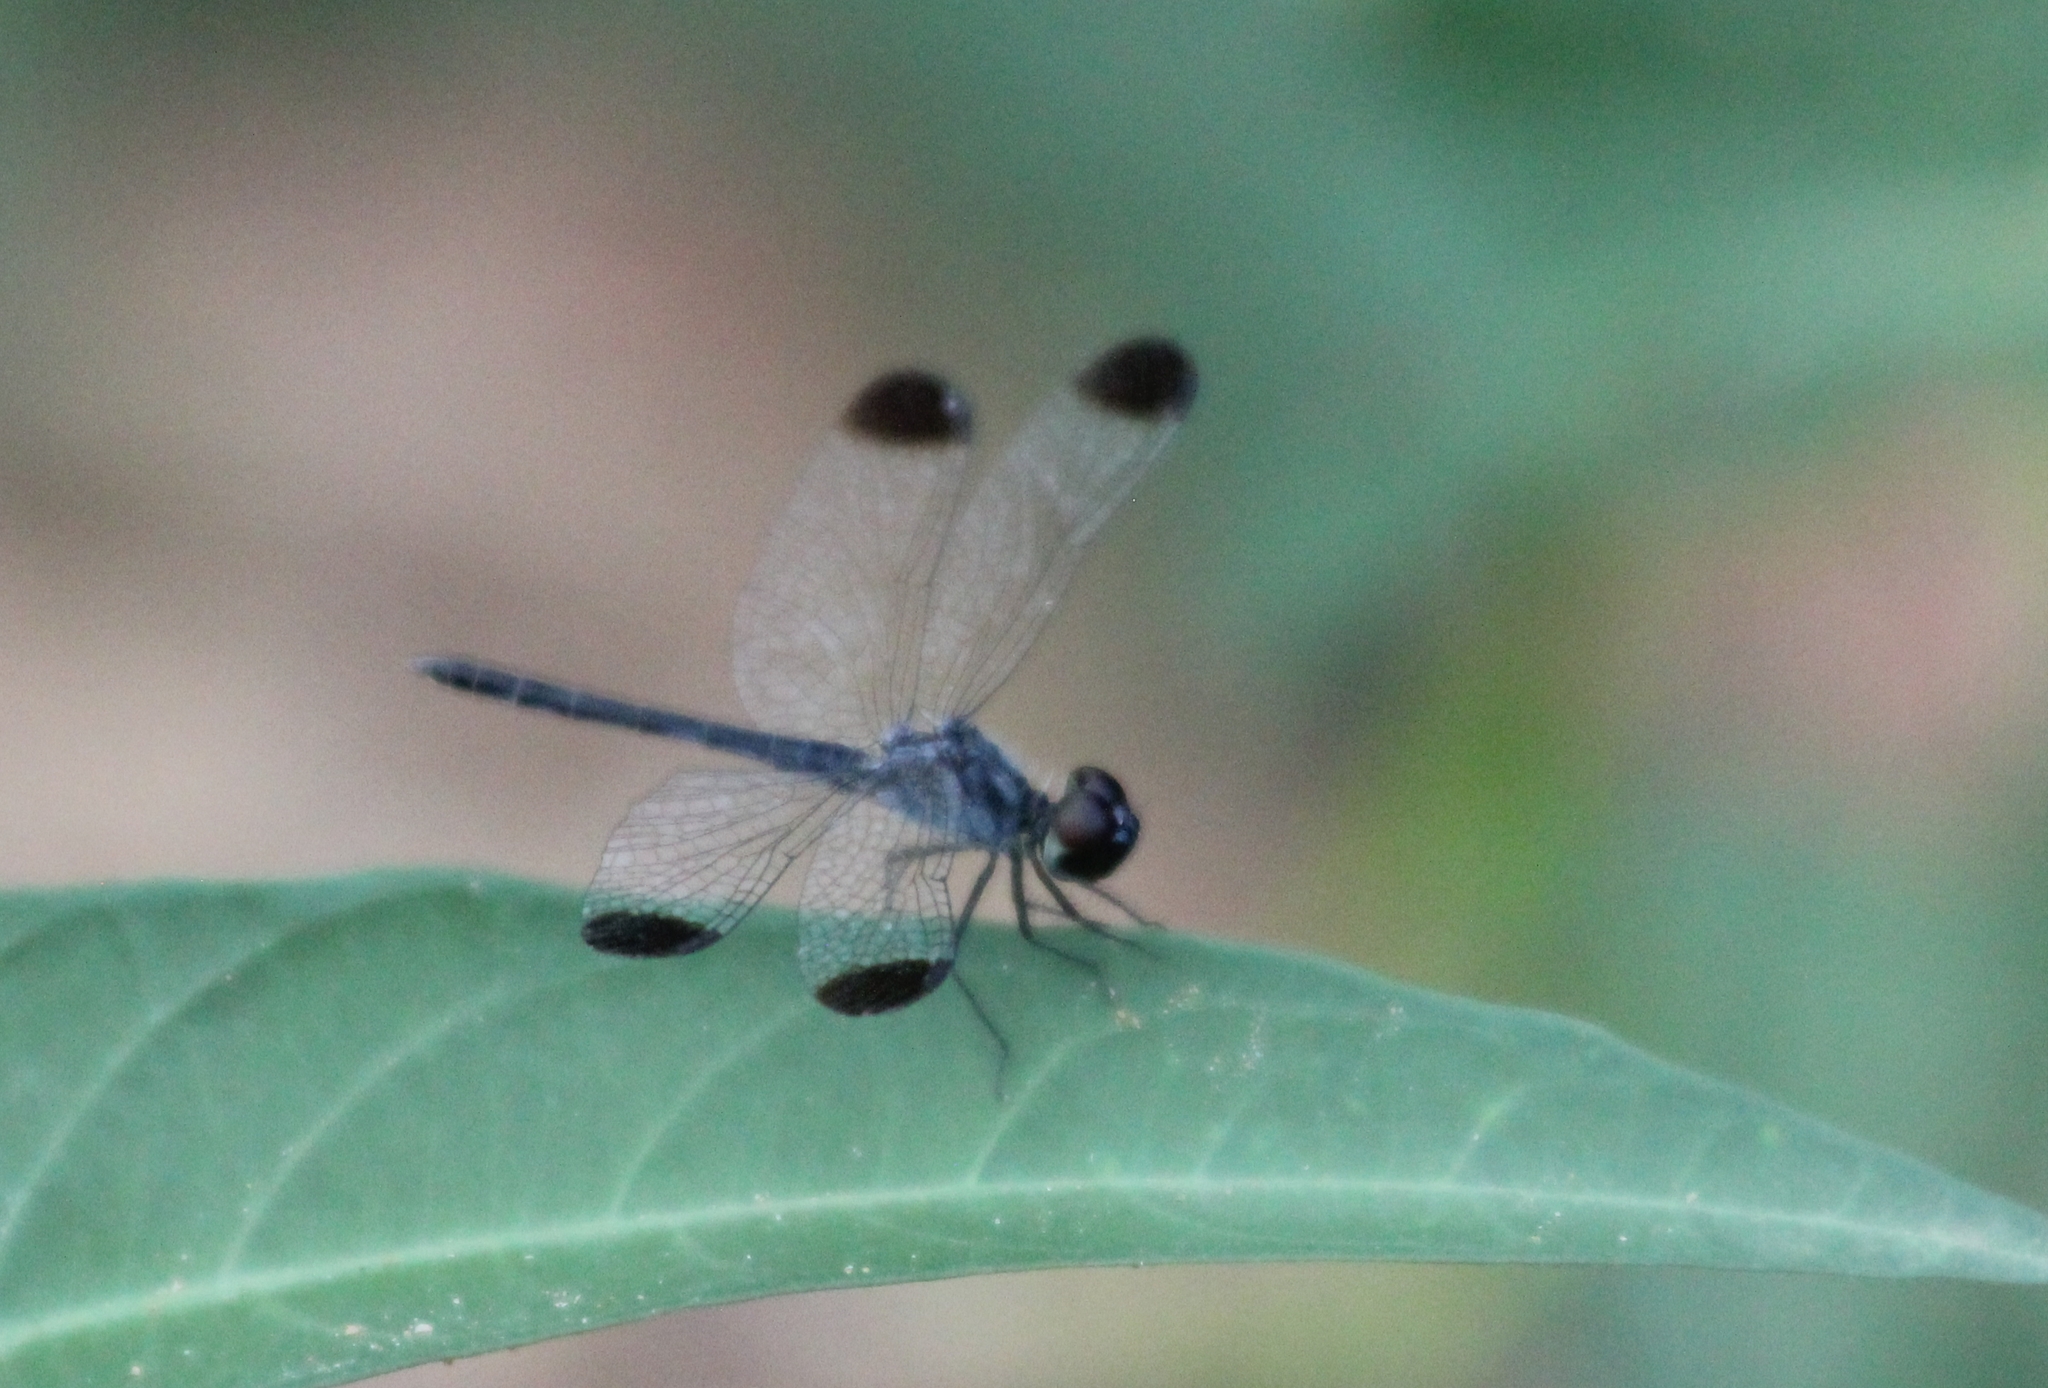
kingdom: Animalia
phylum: Arthropoda
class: Insecta
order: Odonata
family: Libellulidae
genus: Diplacodes
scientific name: Diplacodes nebulosa
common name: Black-tipped percher
